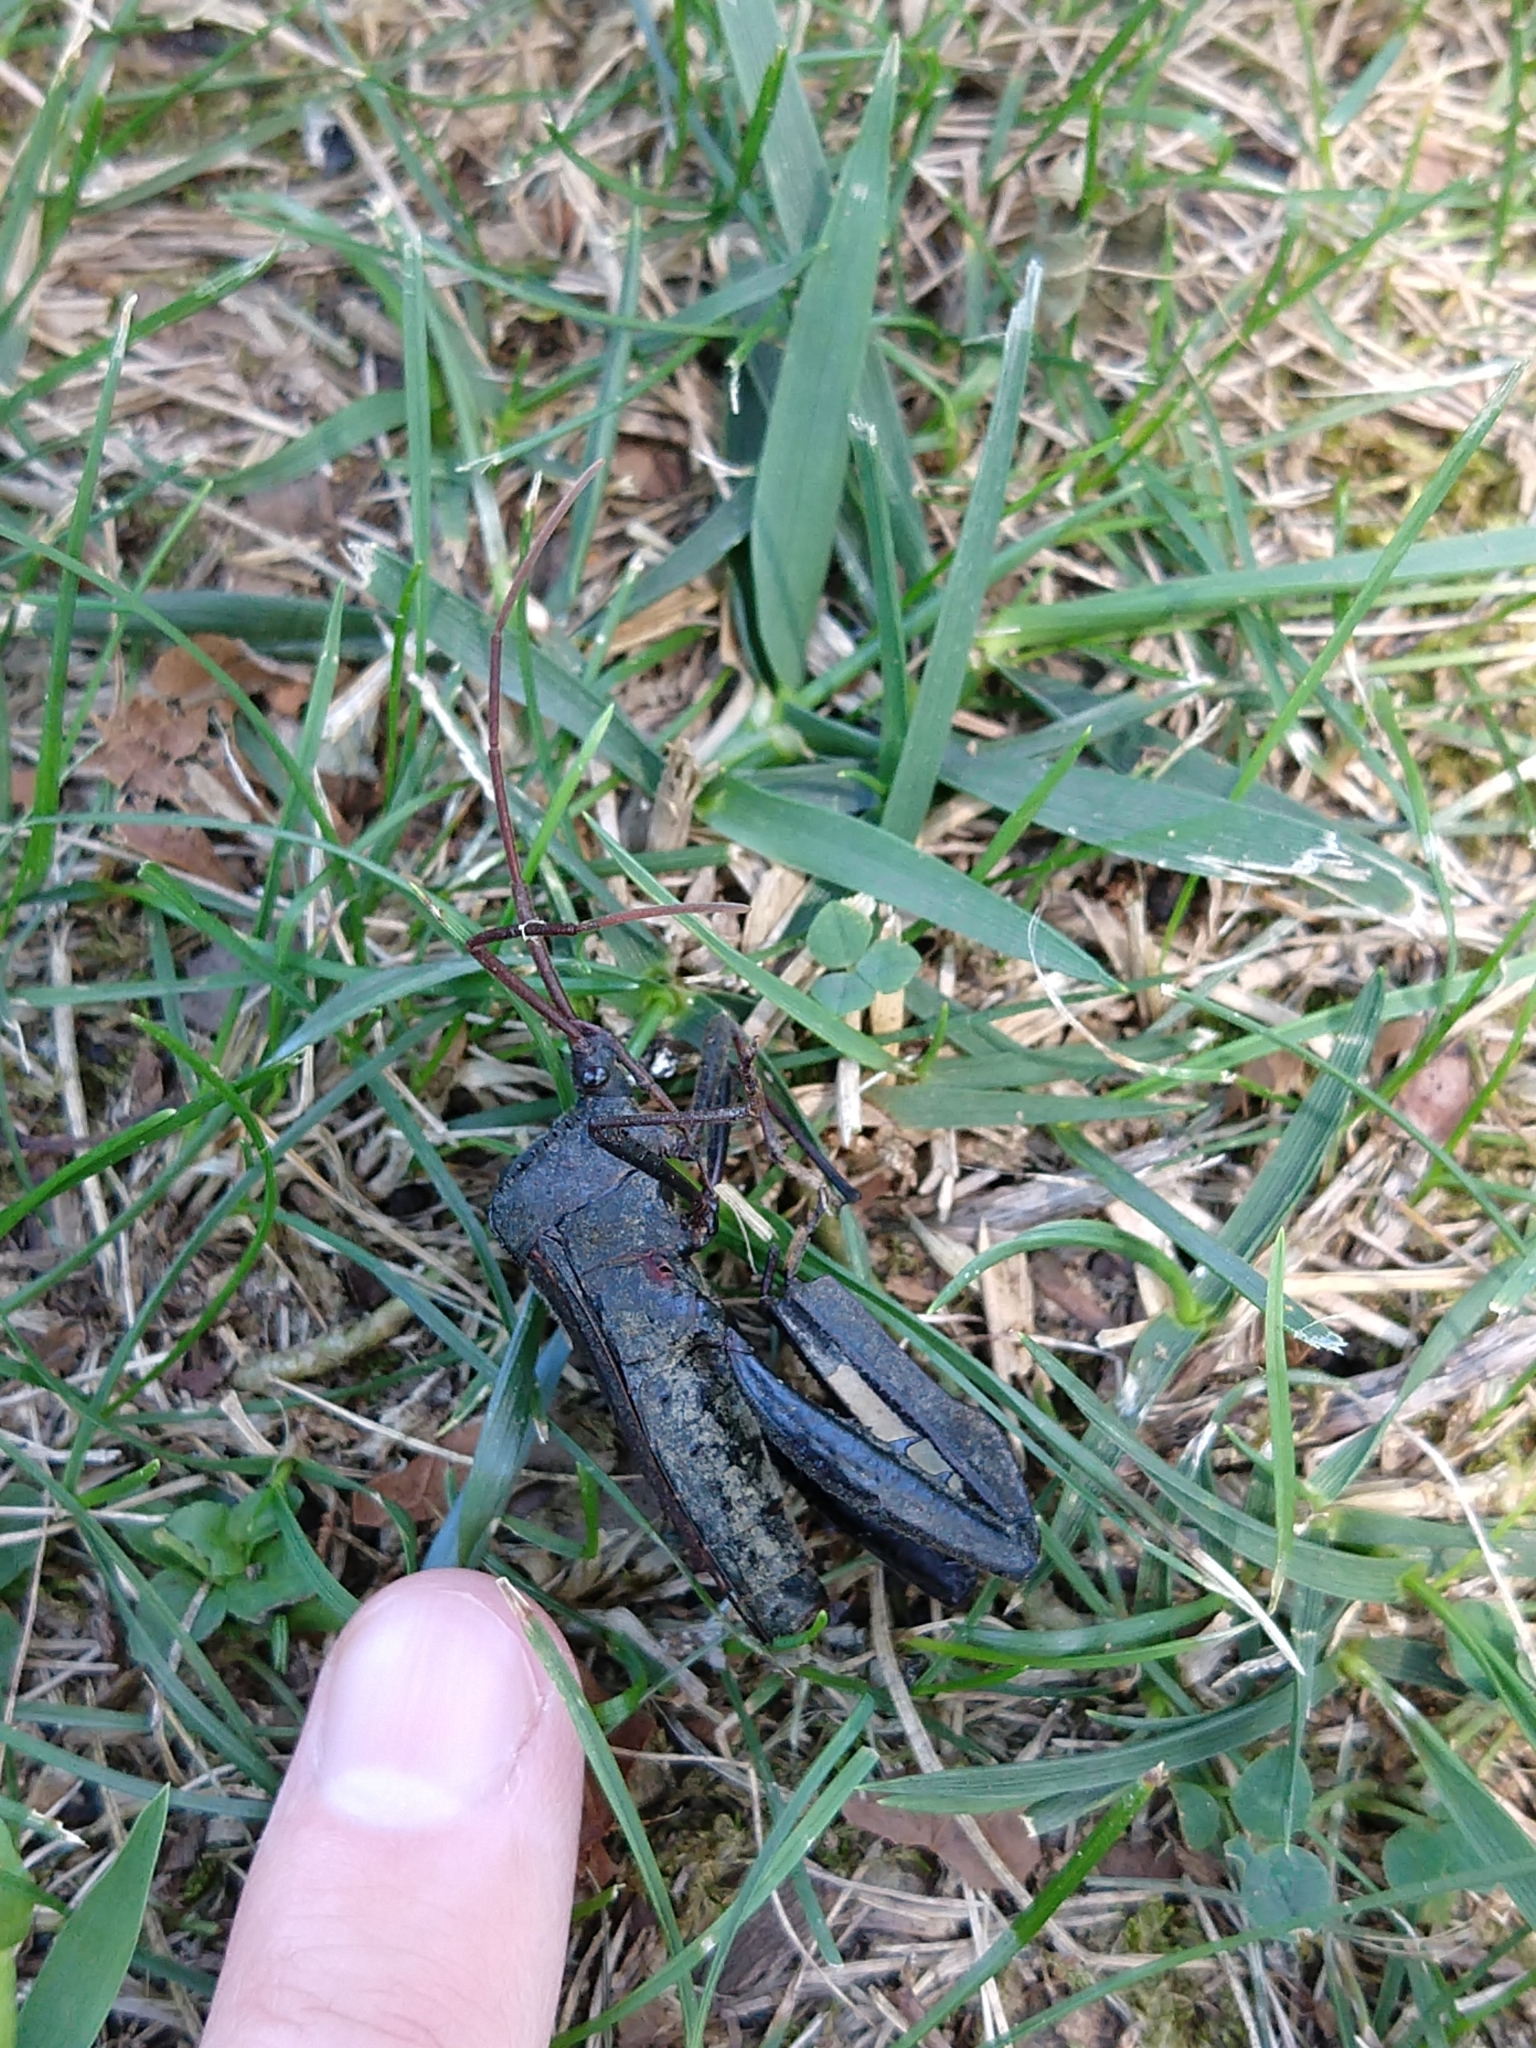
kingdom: Animalia
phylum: Arthropoda
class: Insecta
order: Hemiptera
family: Coreidae
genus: Acanthocephala
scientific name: Acanthocephala declivis
